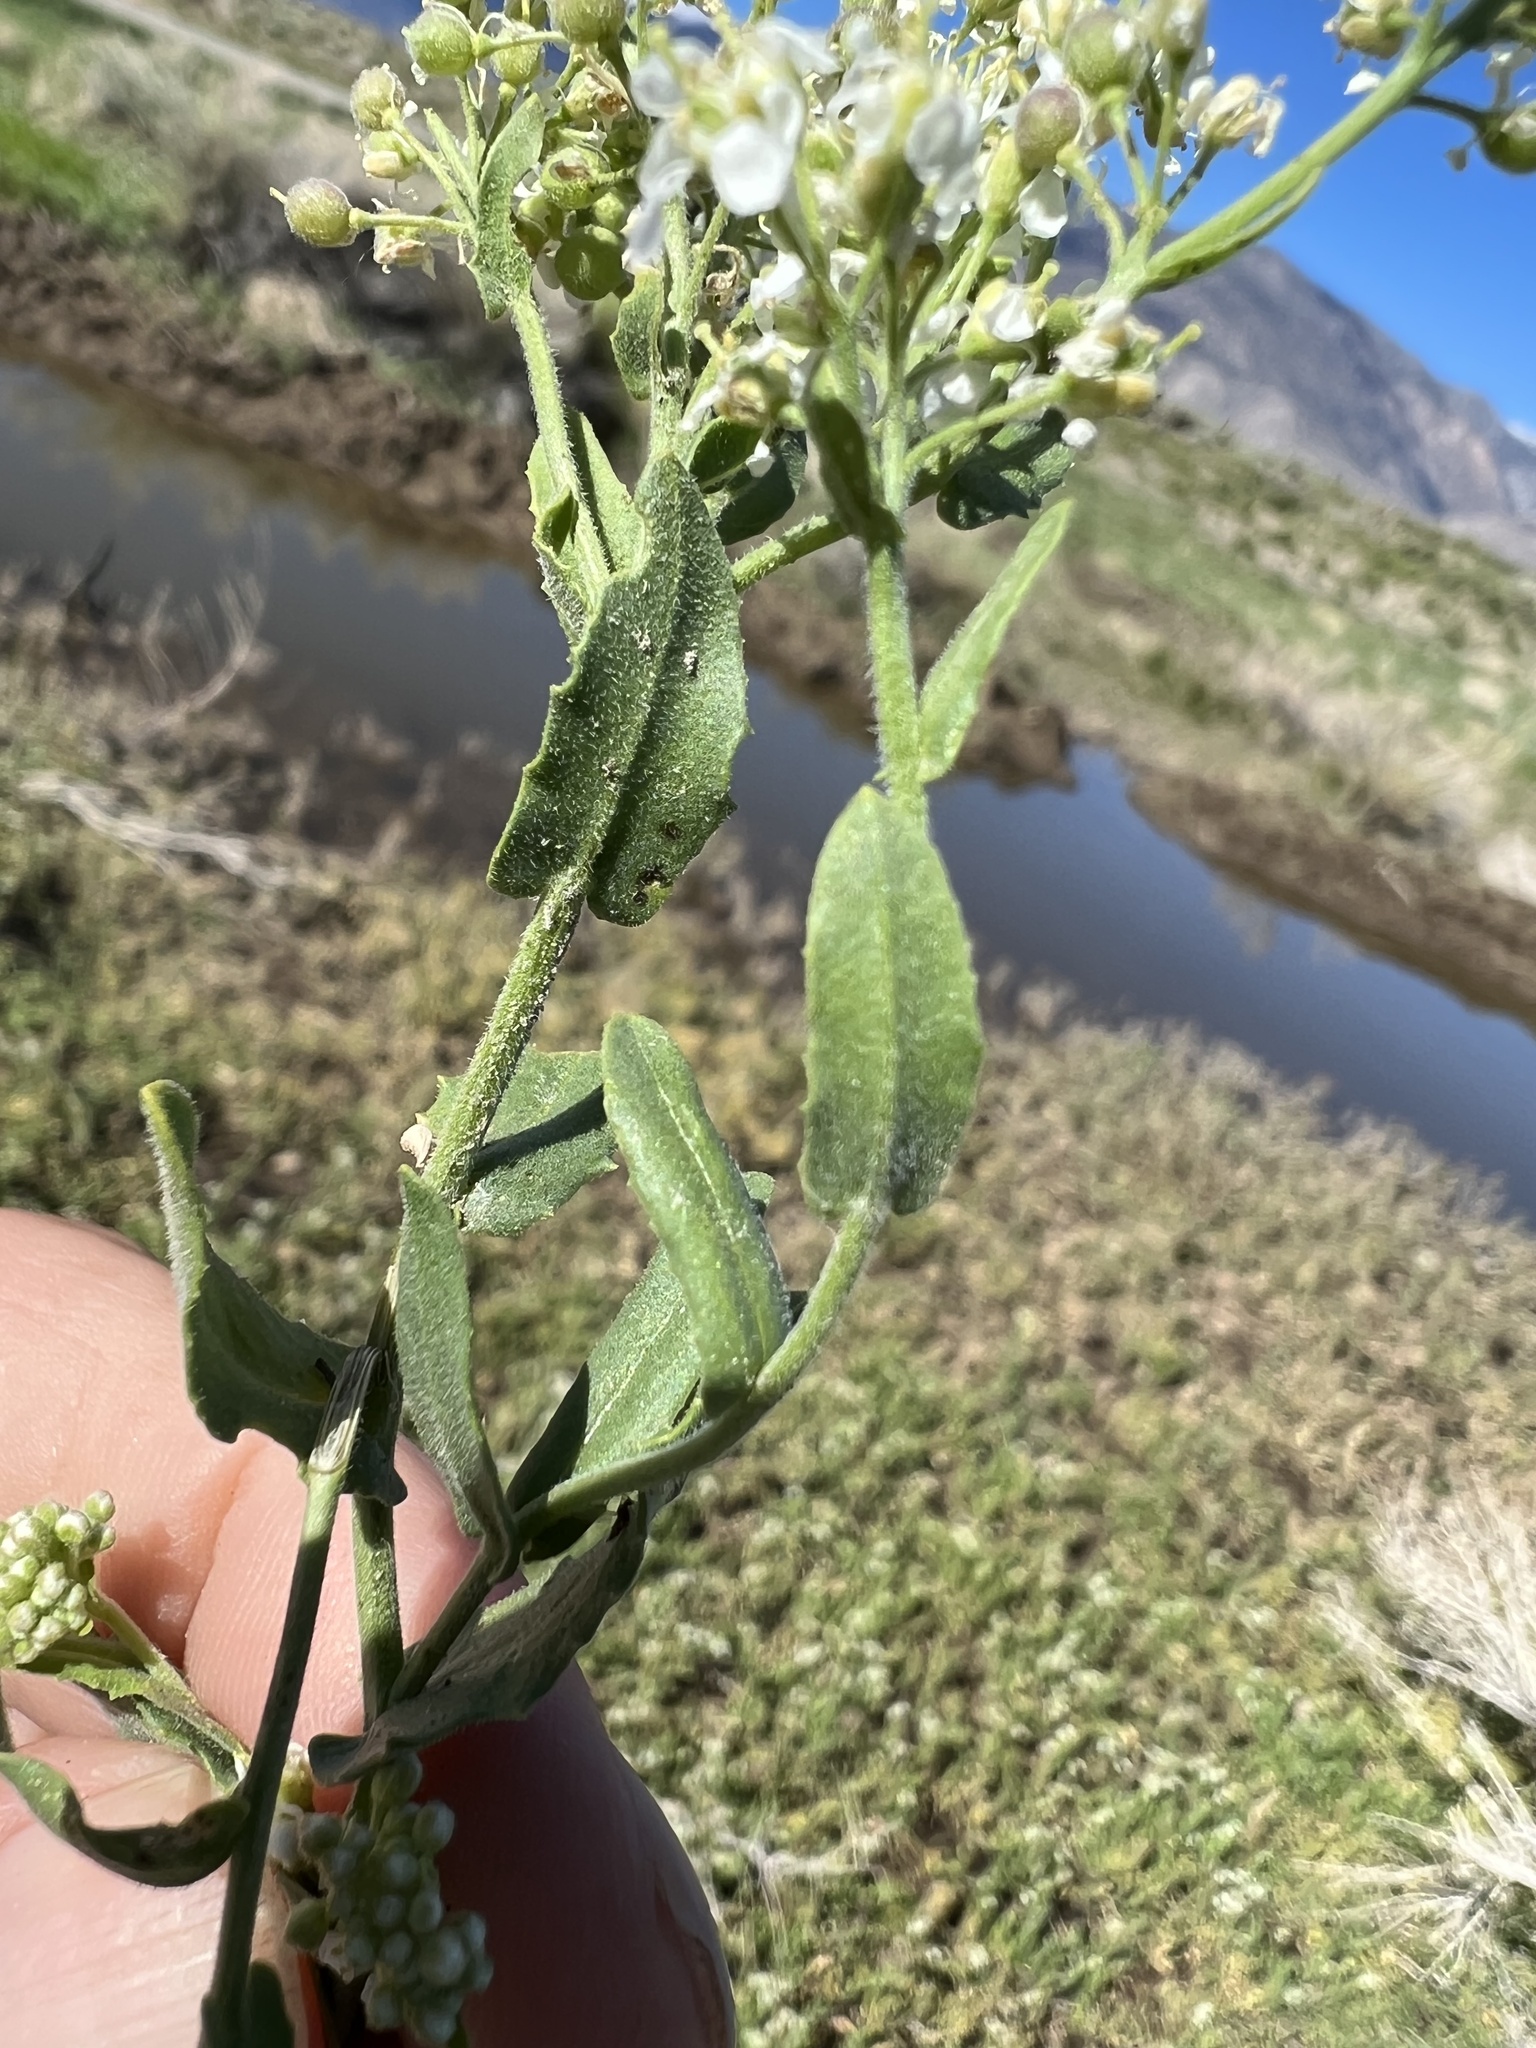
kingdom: Plantae
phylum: Tracheophyta
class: Magnoliopsida
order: Brassicales
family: Brassicaceae
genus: Lepidium
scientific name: Lepidium appelianum
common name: Hairy whitetop
